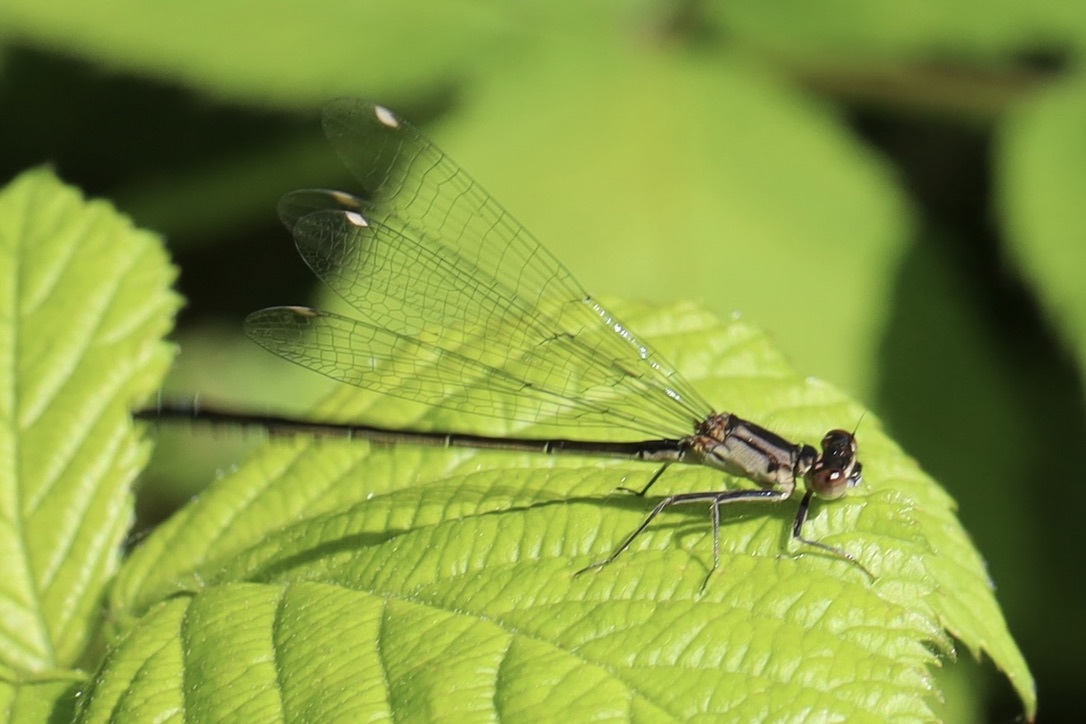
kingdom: Animalia
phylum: Arthropoda
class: Insecta
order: Odonata
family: Coenagrionidae
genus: Ischnura
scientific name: Ischnura cervula
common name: Pacific forktail
